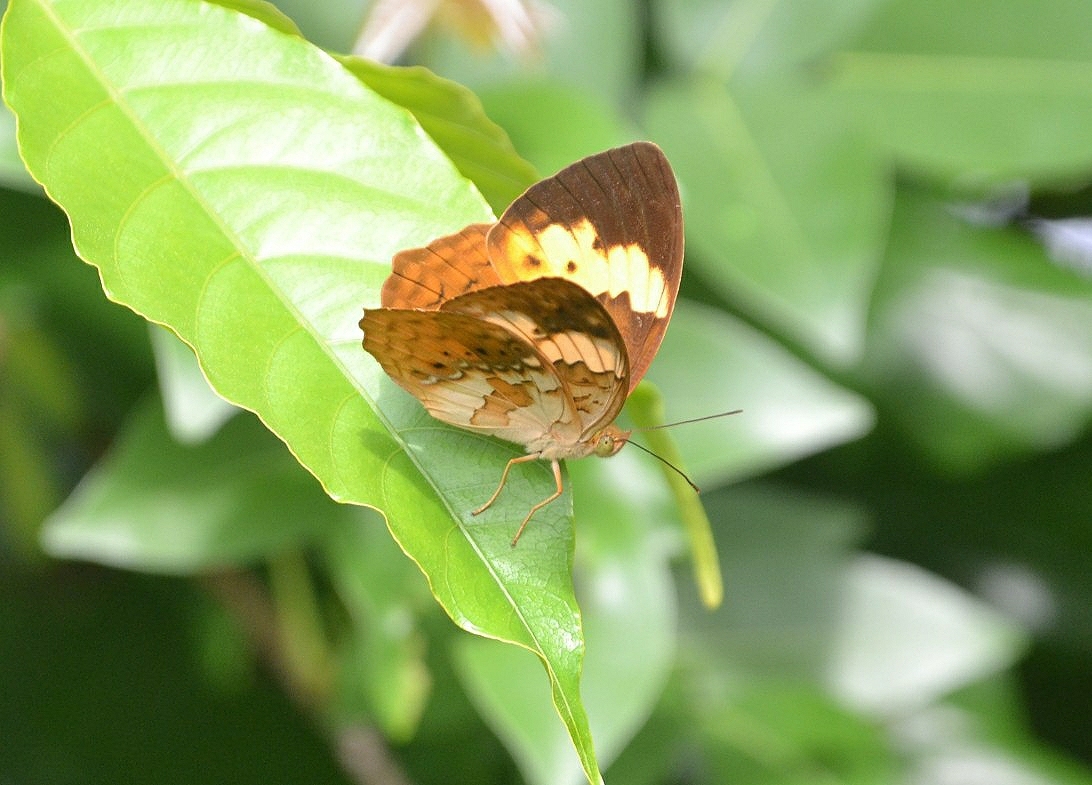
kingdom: Animalia
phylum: Arthropoda
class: Insecta
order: Lepidoptera
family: Nymphalidae
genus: Cupha
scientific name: Cupha erymanthis
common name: Rustic
